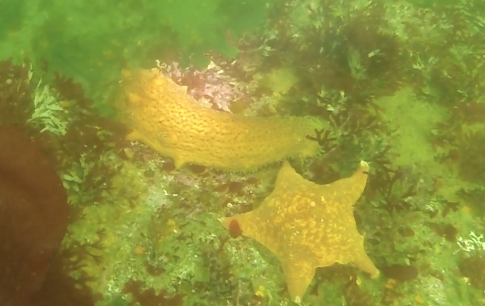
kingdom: Animalia
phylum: Echinodermata
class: Asteroidea
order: Valvatida
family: Asterinidae
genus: Patiria
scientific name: Patiria miniata
